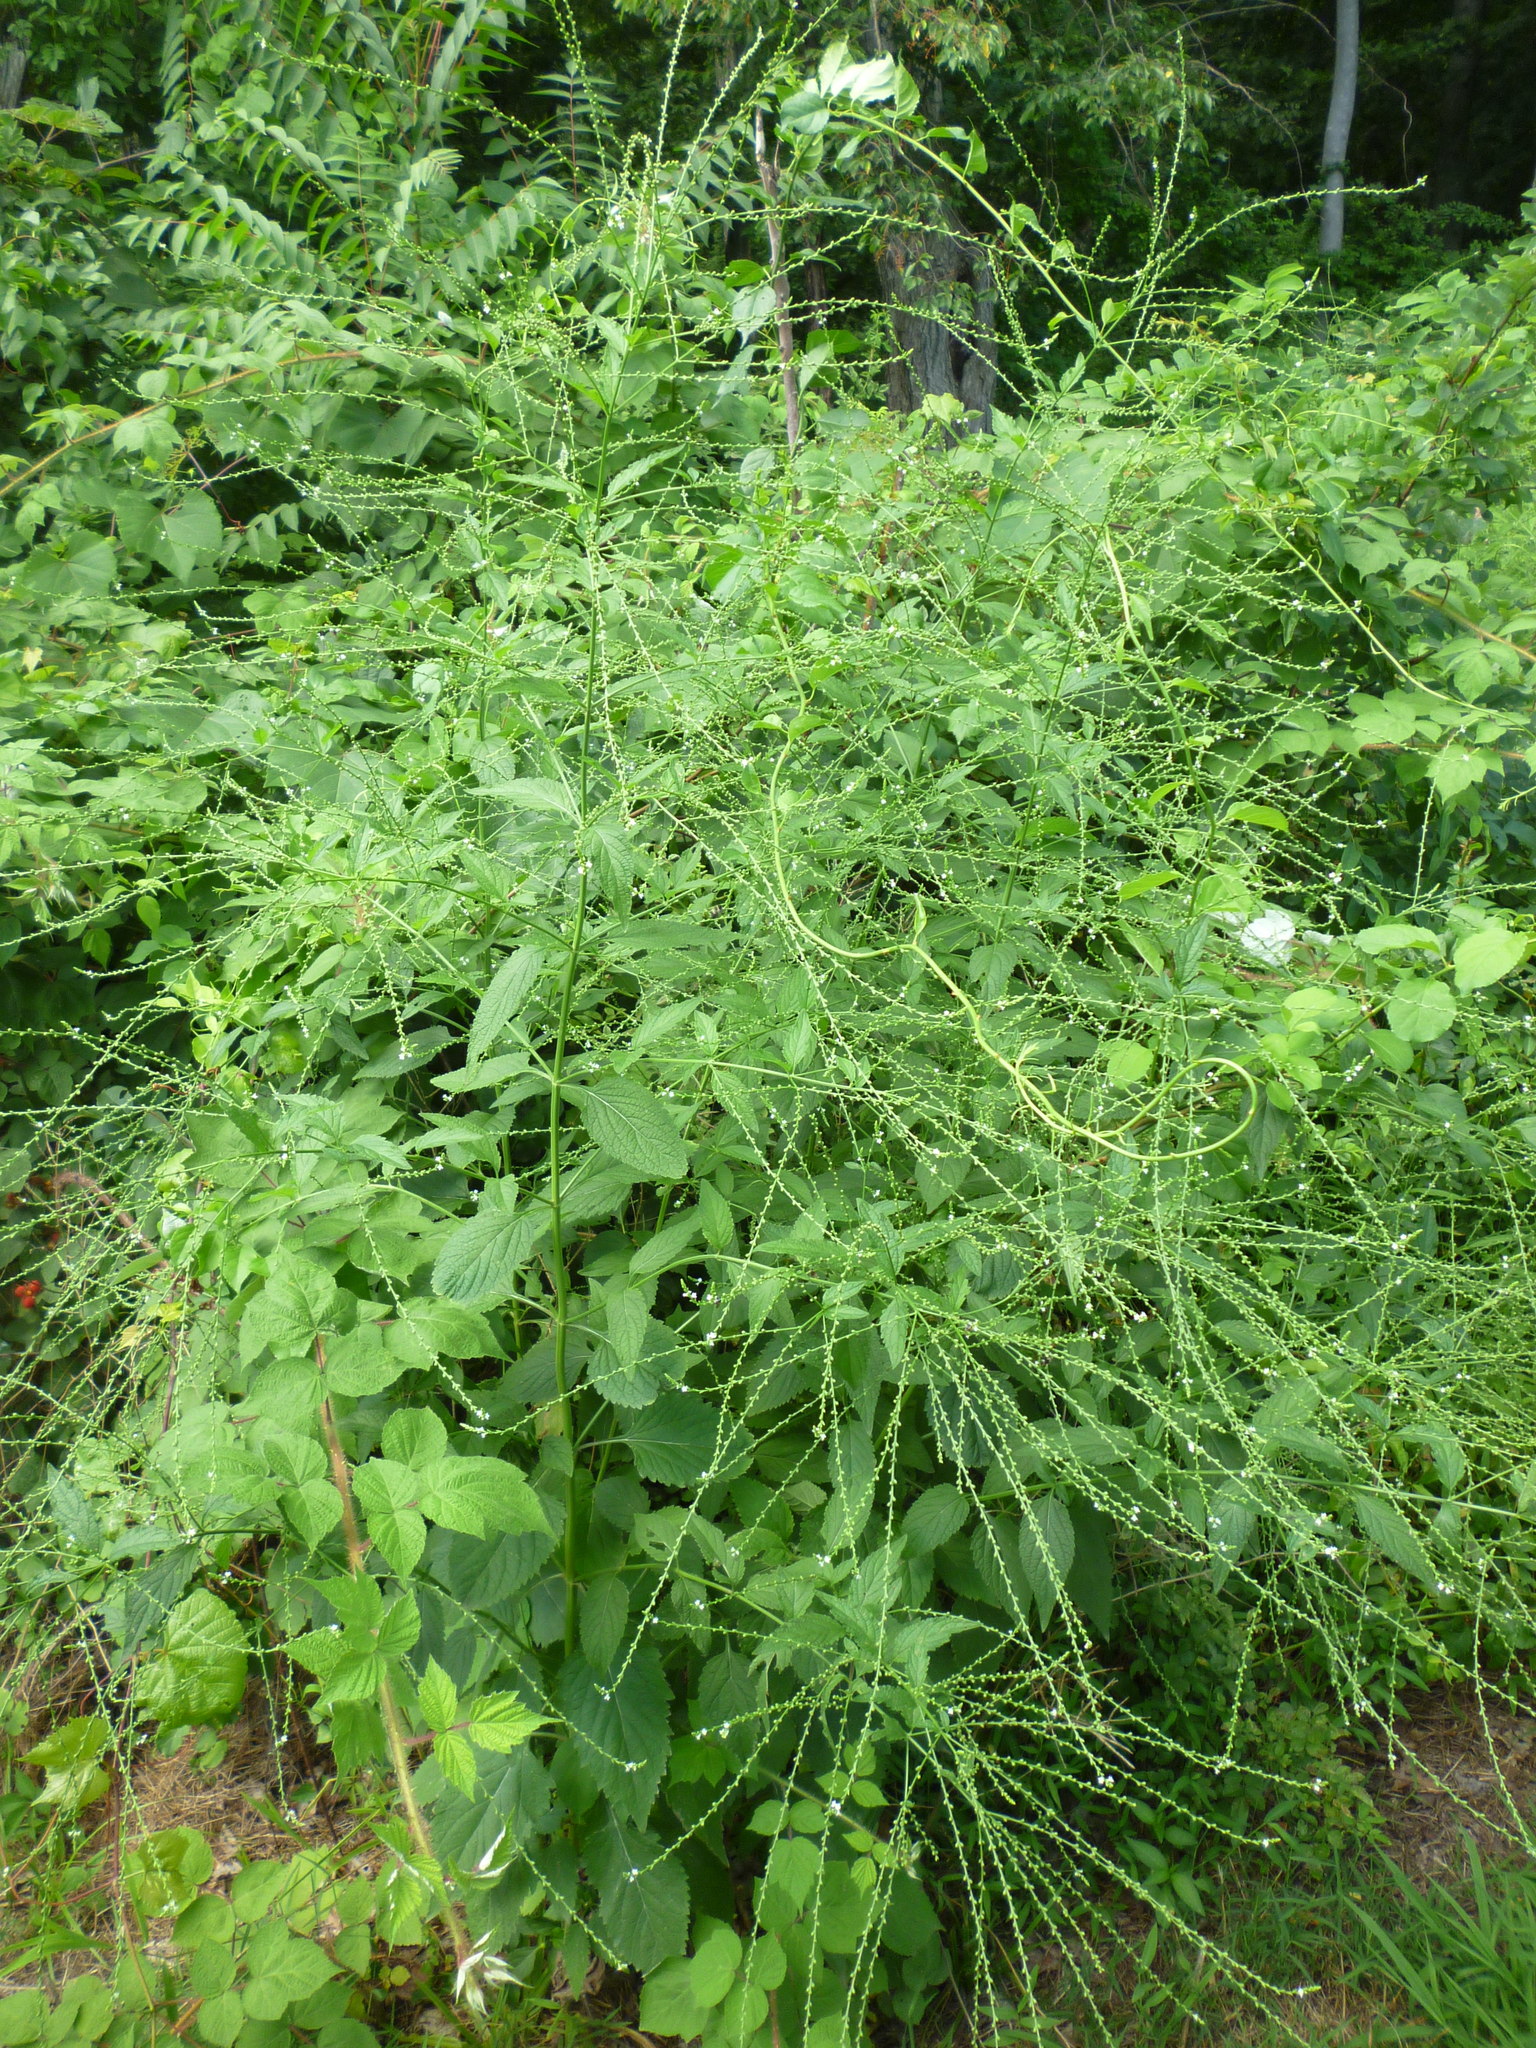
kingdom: Plantae
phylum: Tracheophyta
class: Magnoliopsida
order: Lamiales
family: Verbenaceae
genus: Verbena
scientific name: Verbena urticifolia
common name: Nettle-leaved vervain
